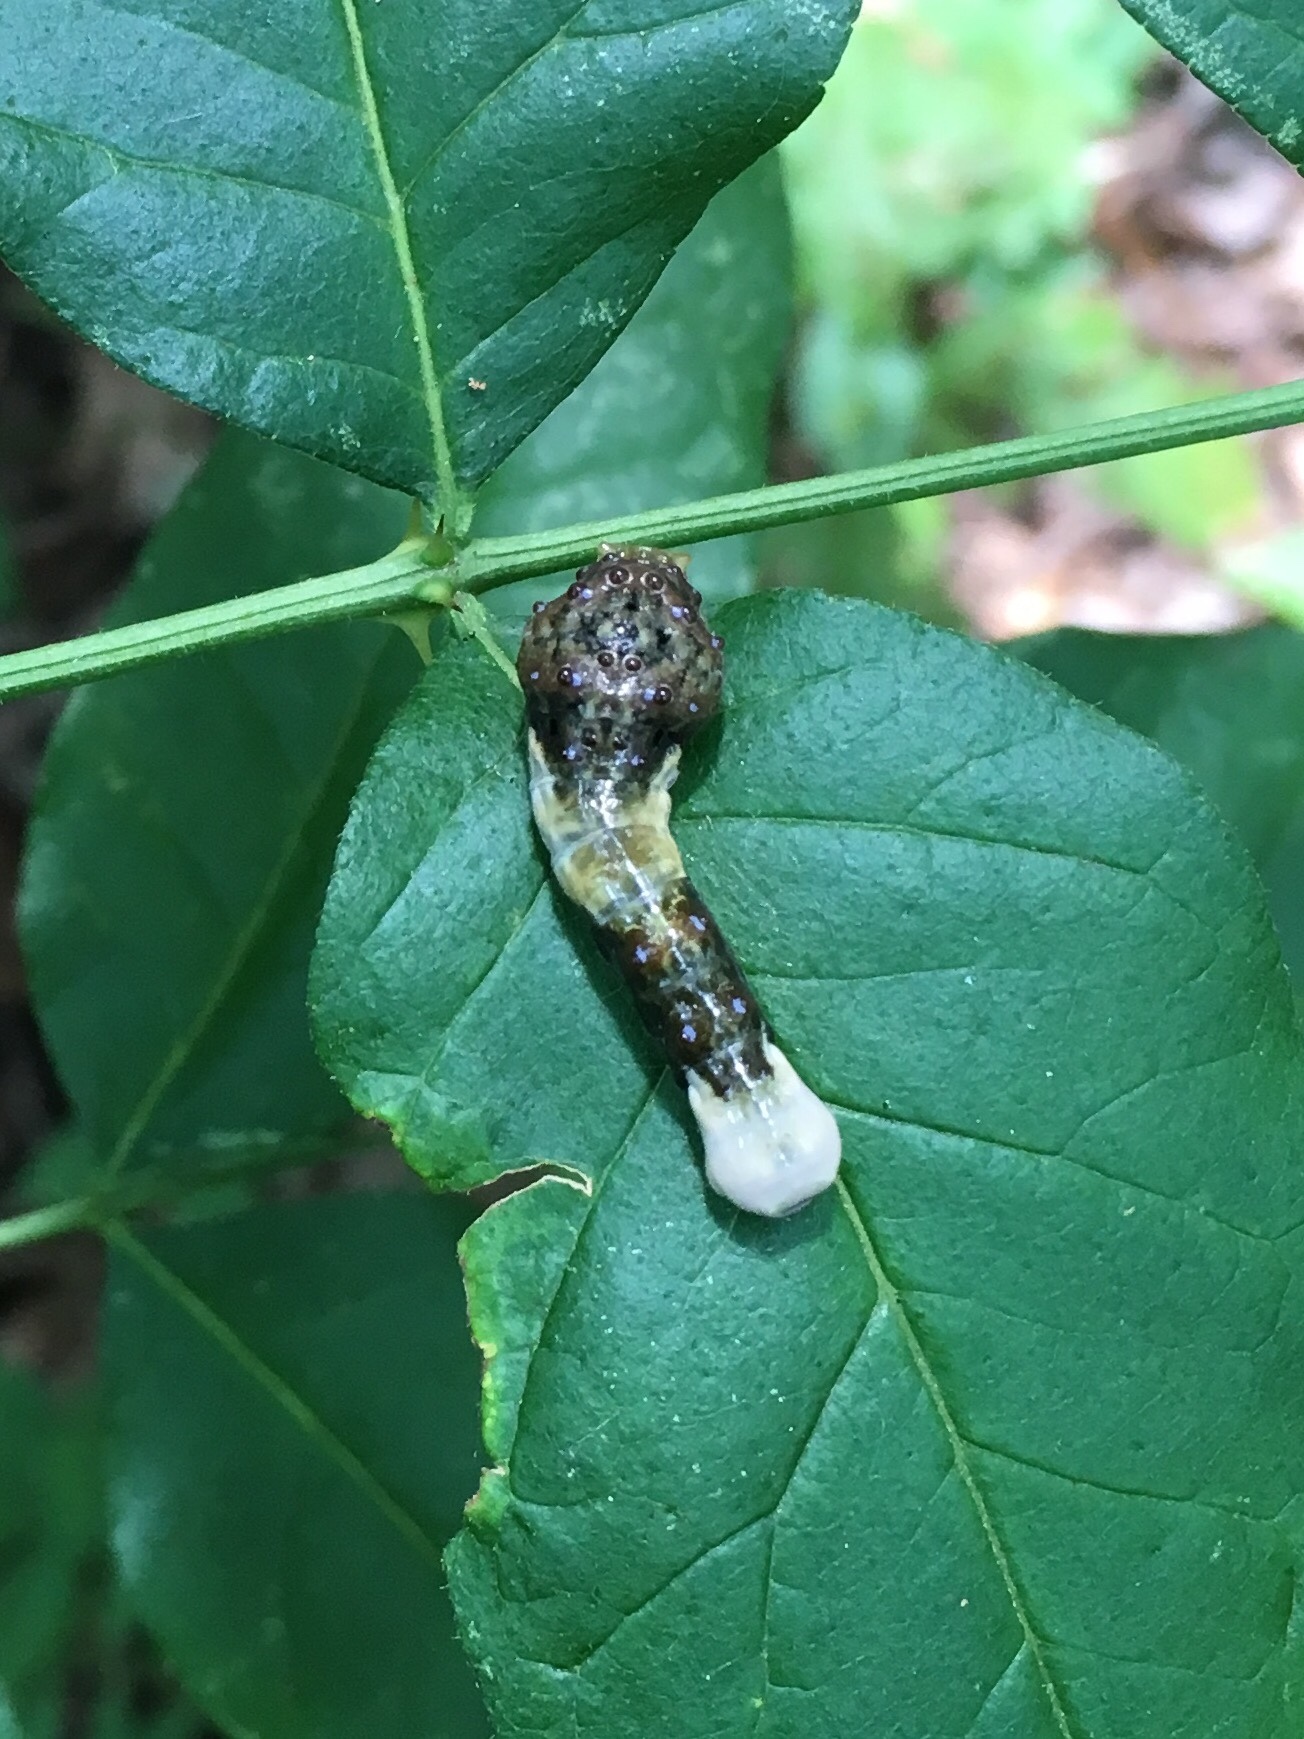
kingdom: Animalia
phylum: Arthropoda
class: Insecta
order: Lepidoptera
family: Papilionidae
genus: Papilio
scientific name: Papilio cresphontes
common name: Giant swallowtail
